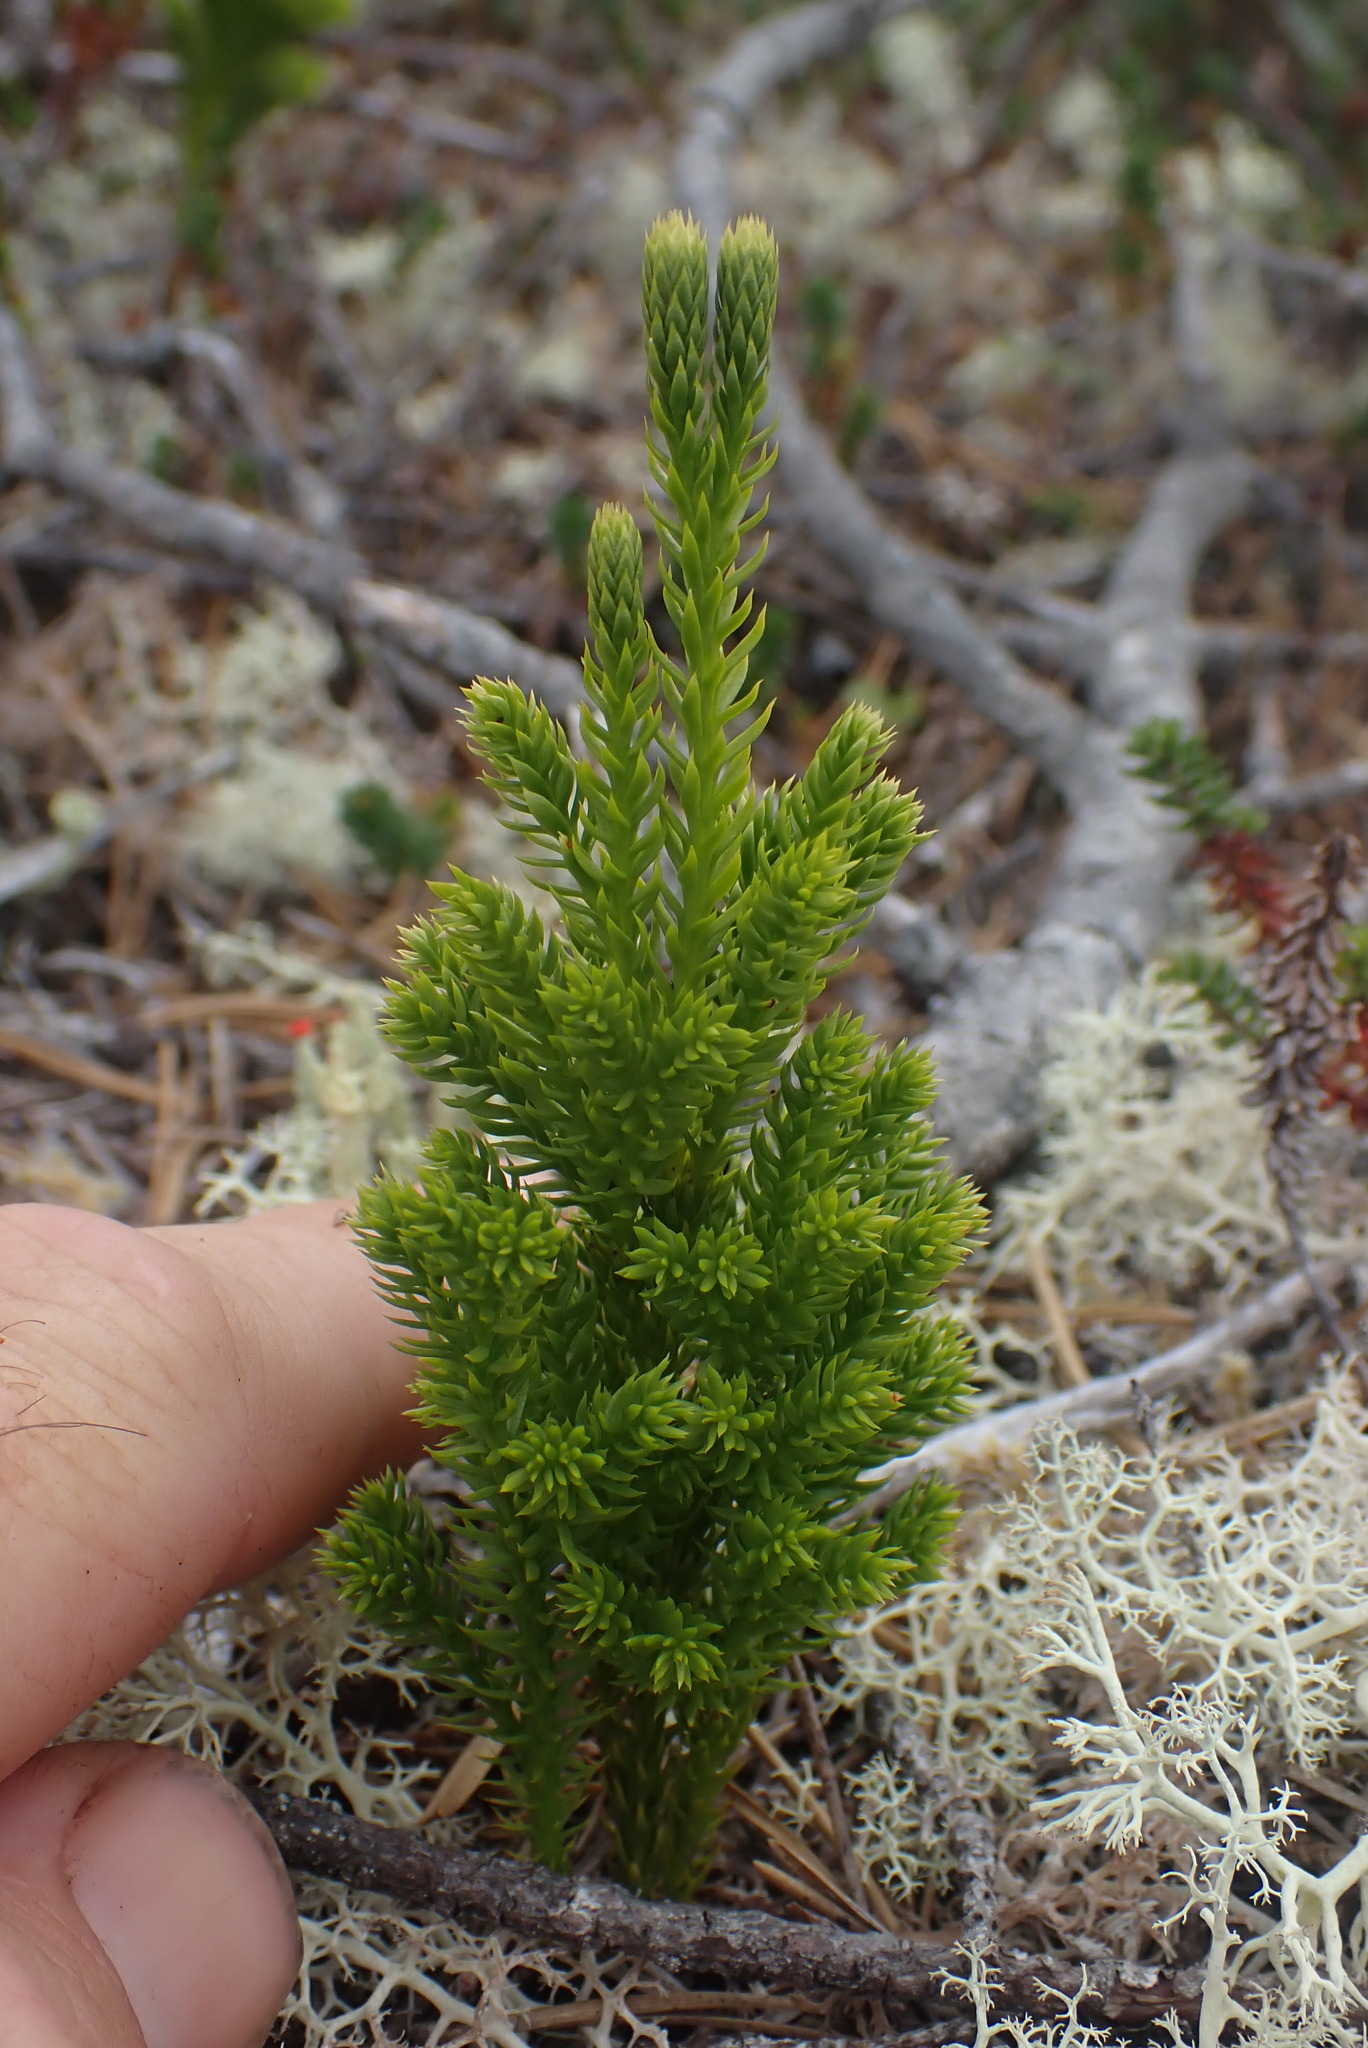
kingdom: Plantae
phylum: Tracheophyta
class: Lycopodiopsida
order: Lycopodiales
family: Lycopodiaceae
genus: Dendrolycopodium
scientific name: Dendrolycopodium dendroideum
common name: Northern tree-clubmoss
